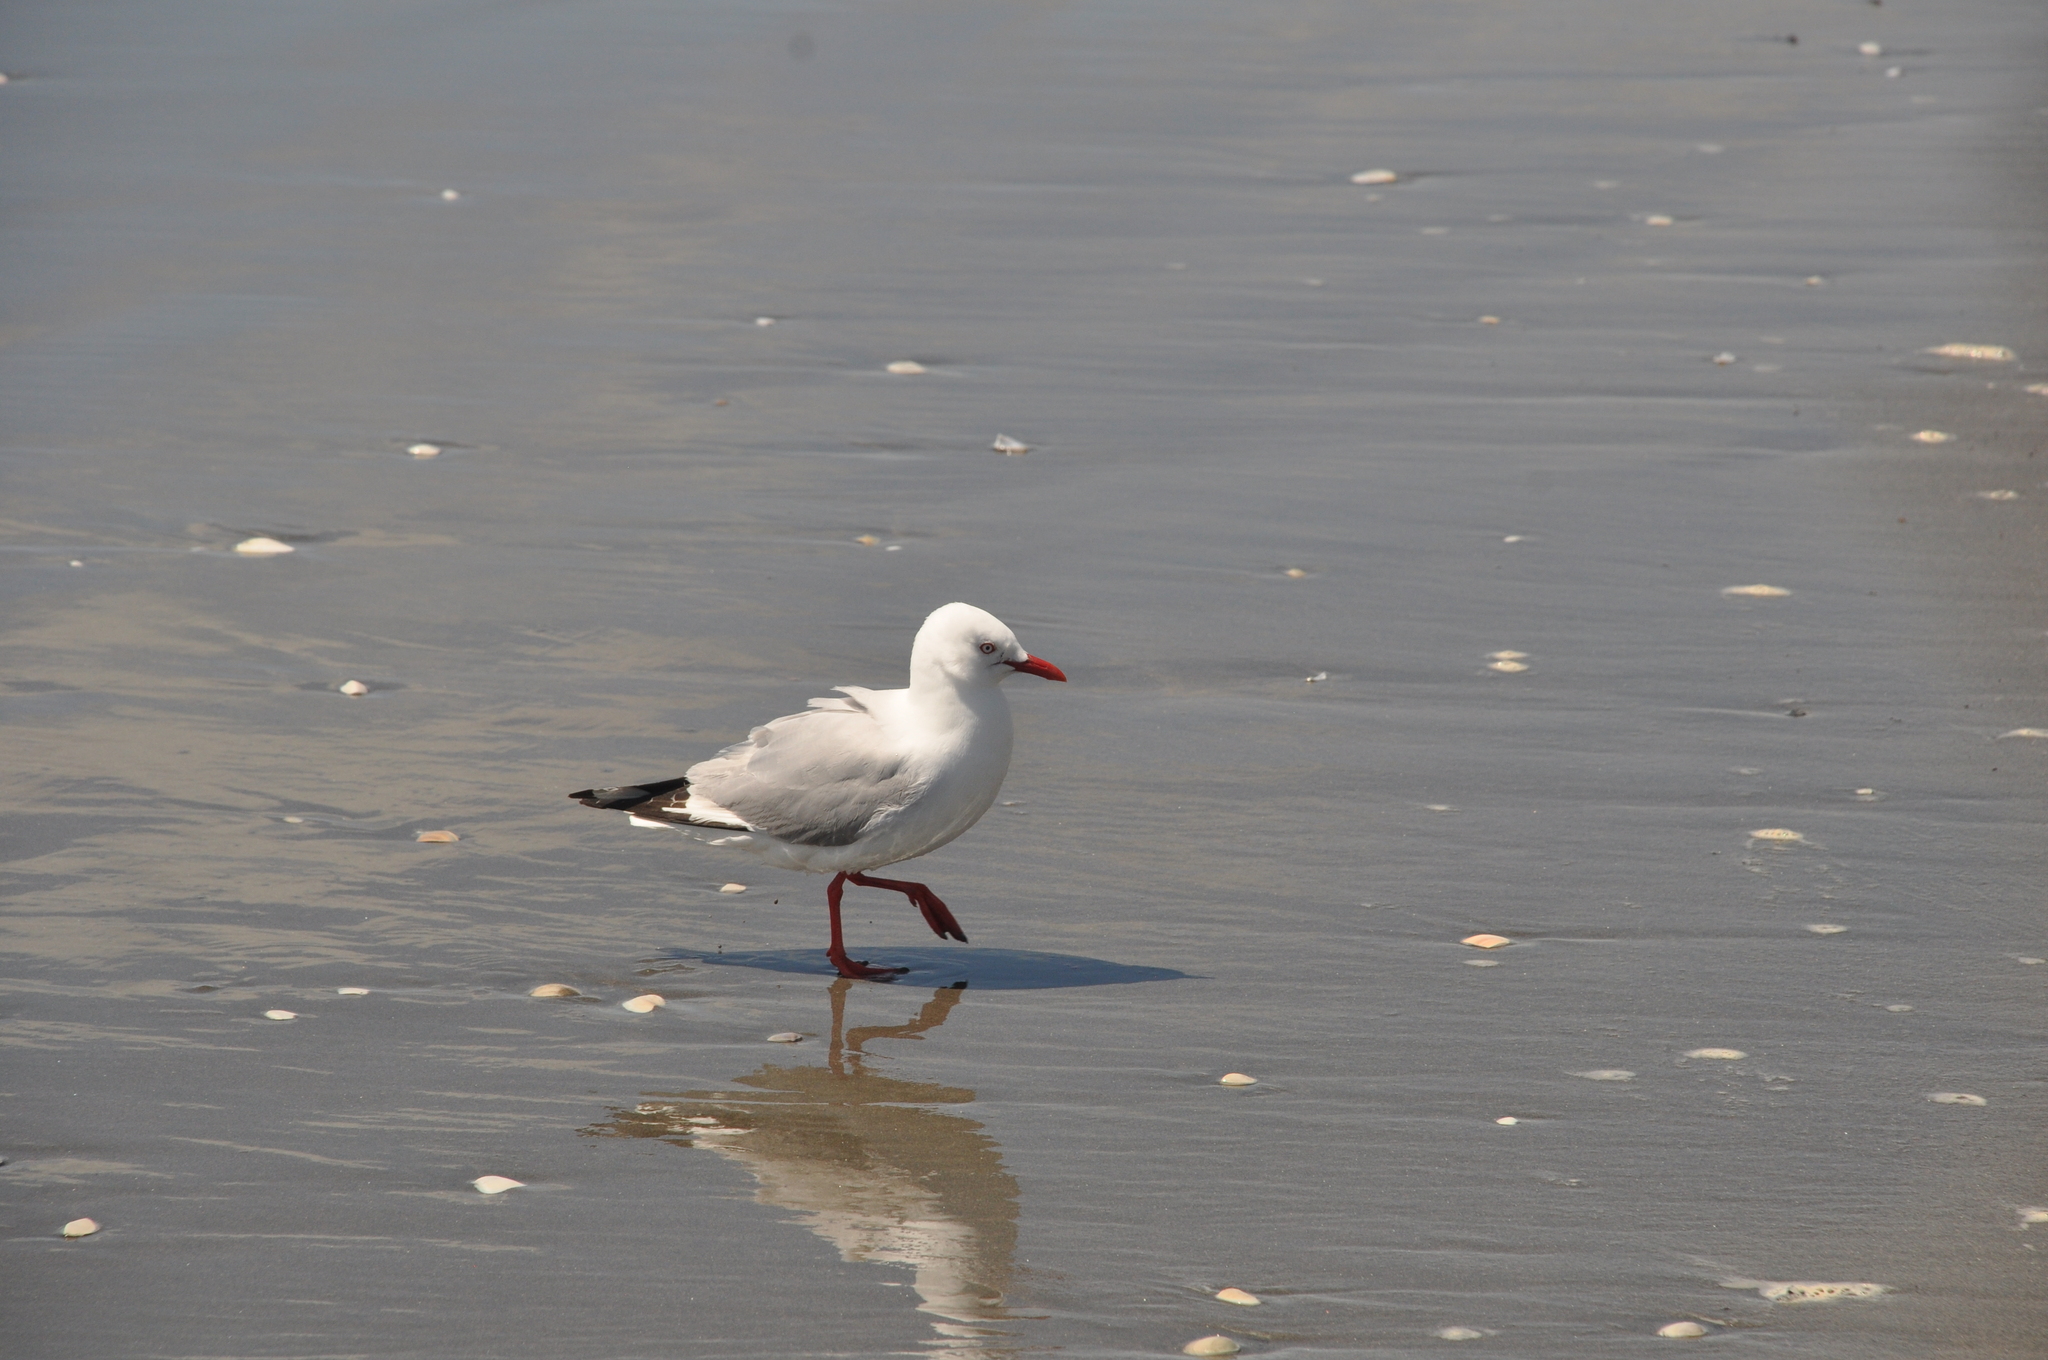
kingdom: Animalia
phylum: Chordata
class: Aves
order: Charadriiformes
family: Laridae
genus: Chroicocephalus
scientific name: Chroicocephalus novaehollandiae
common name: Silver gull
